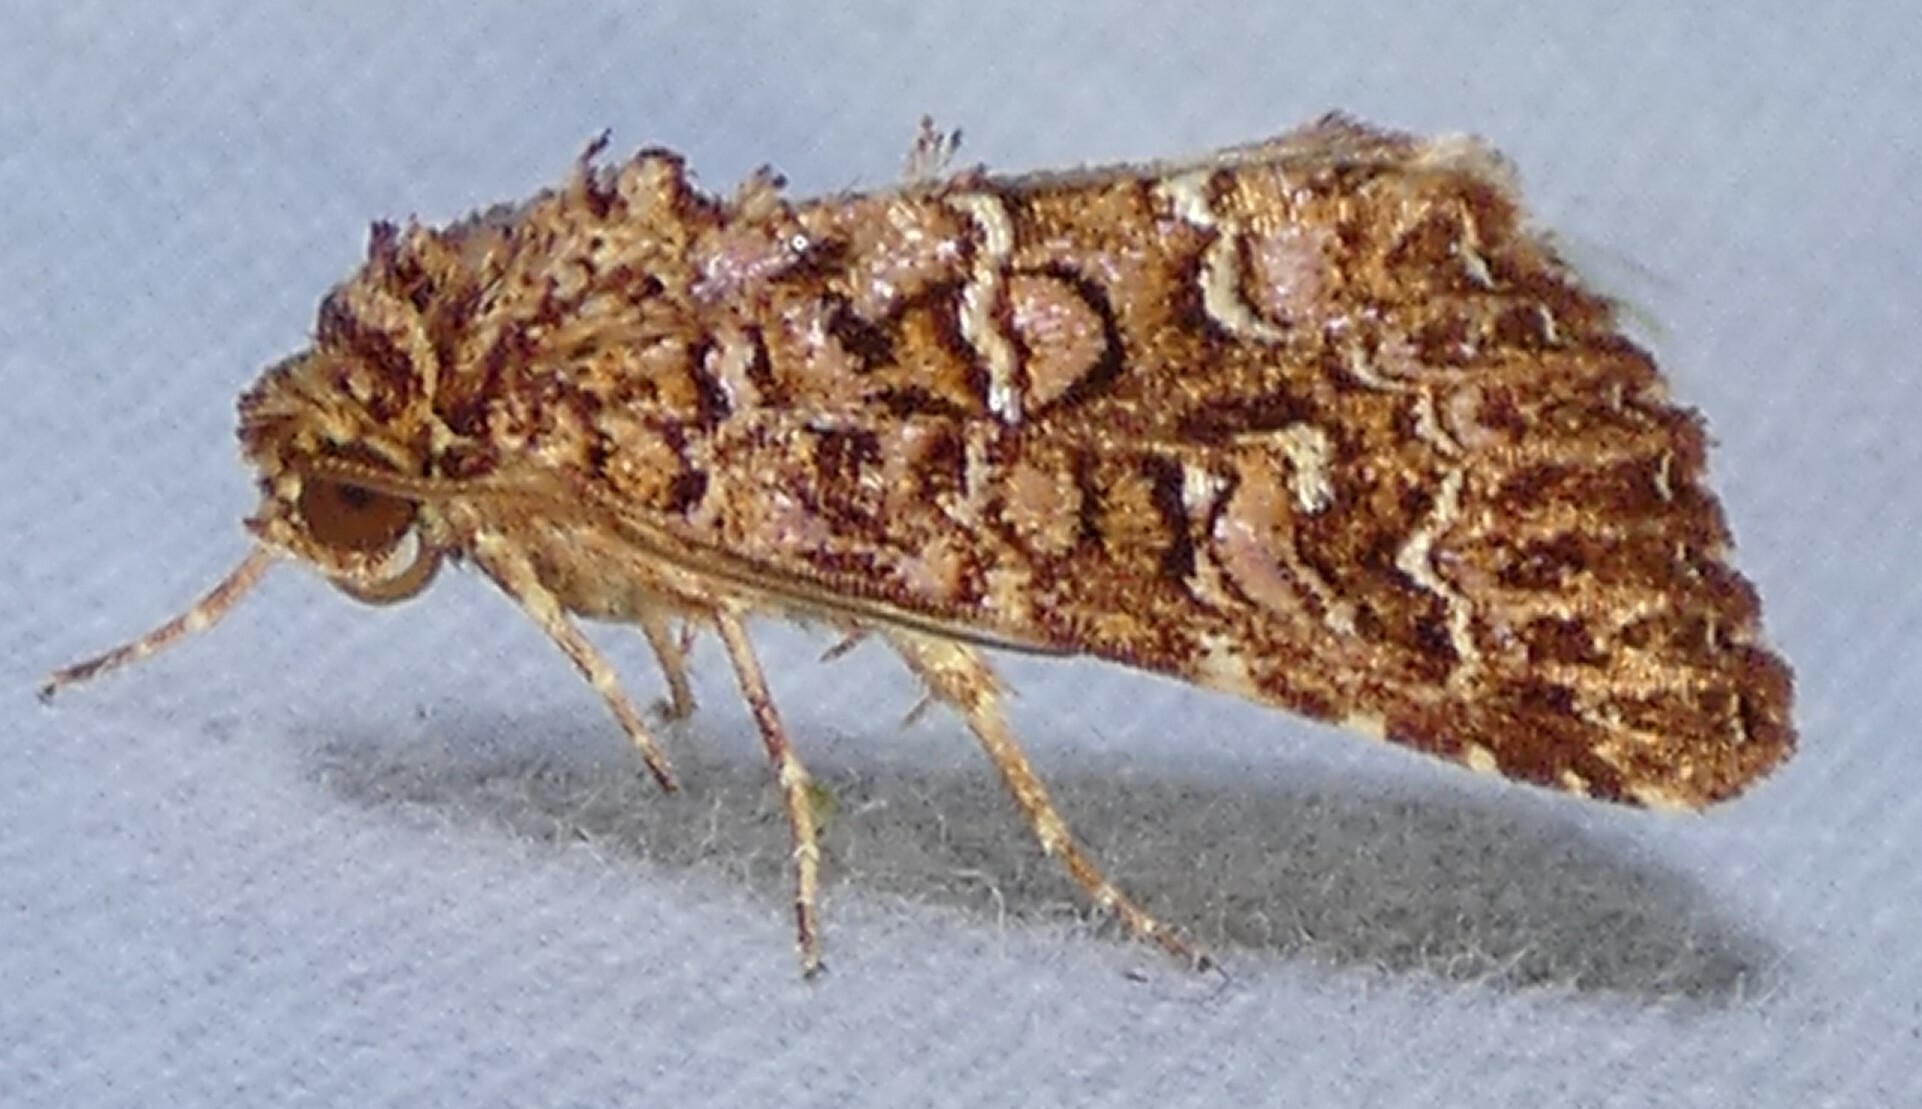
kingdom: Animalia
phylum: Arthropoda
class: Insecta
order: Lepidoptera
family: Noctuidae
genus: Callopistria
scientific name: Callopistria granitosa
